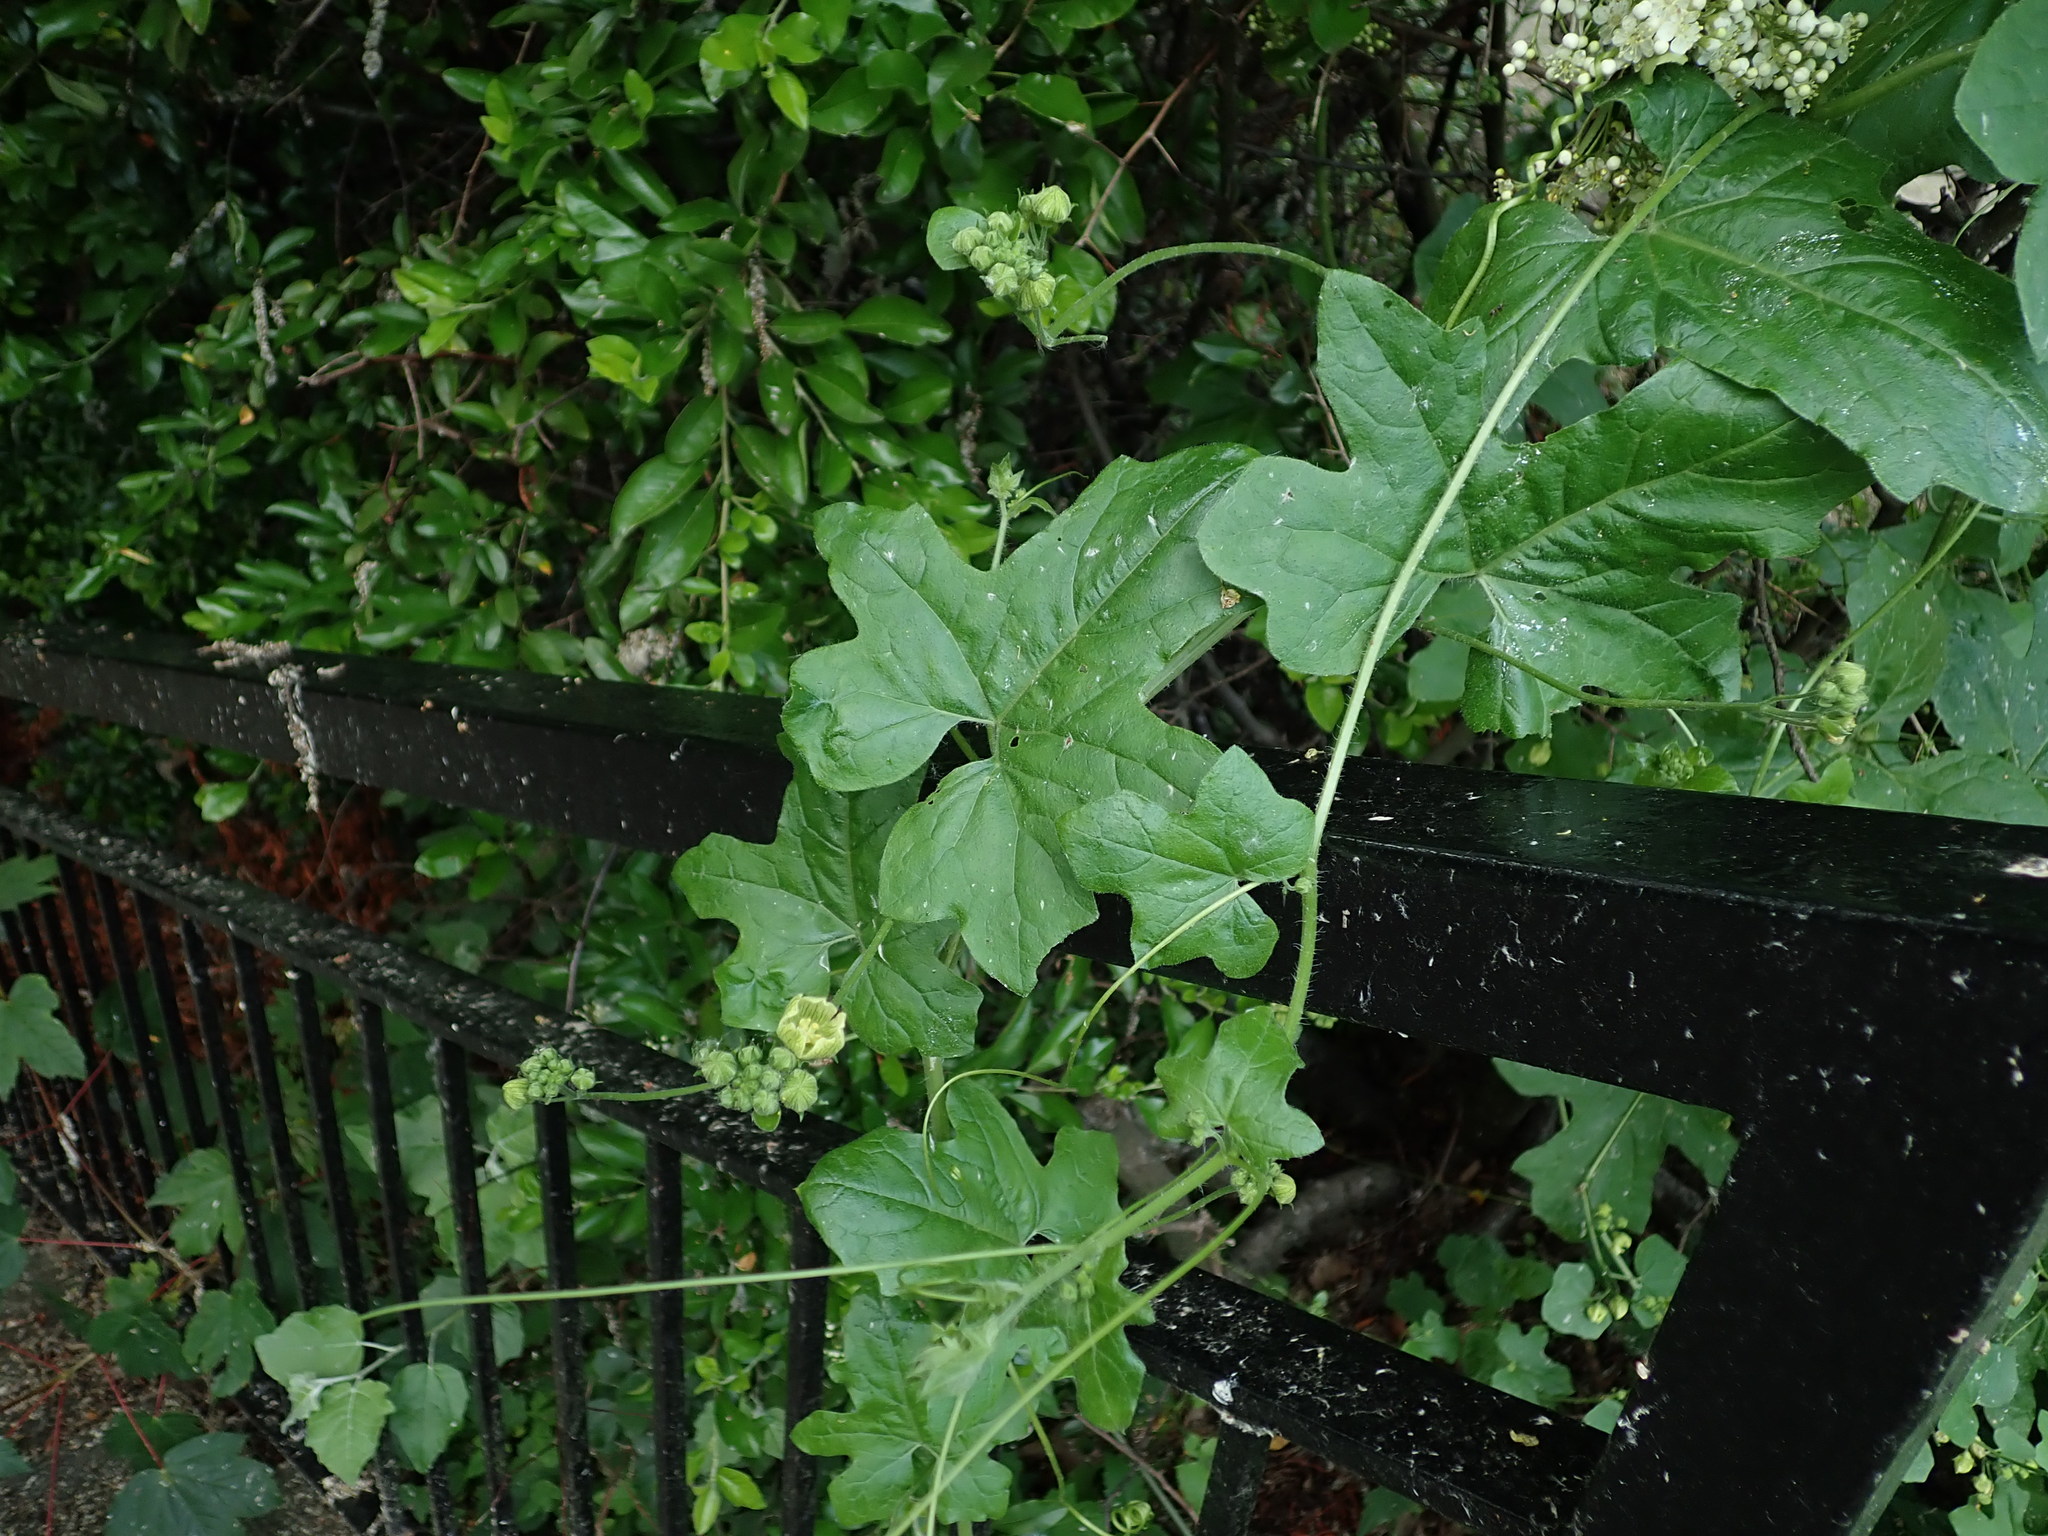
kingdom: Plantae
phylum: Tracheophyta
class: Magnoliopsida
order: Cucurbitales
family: Cucurbitaceae
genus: Bryonia
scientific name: Bryonia cretica
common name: Cretan bryony
